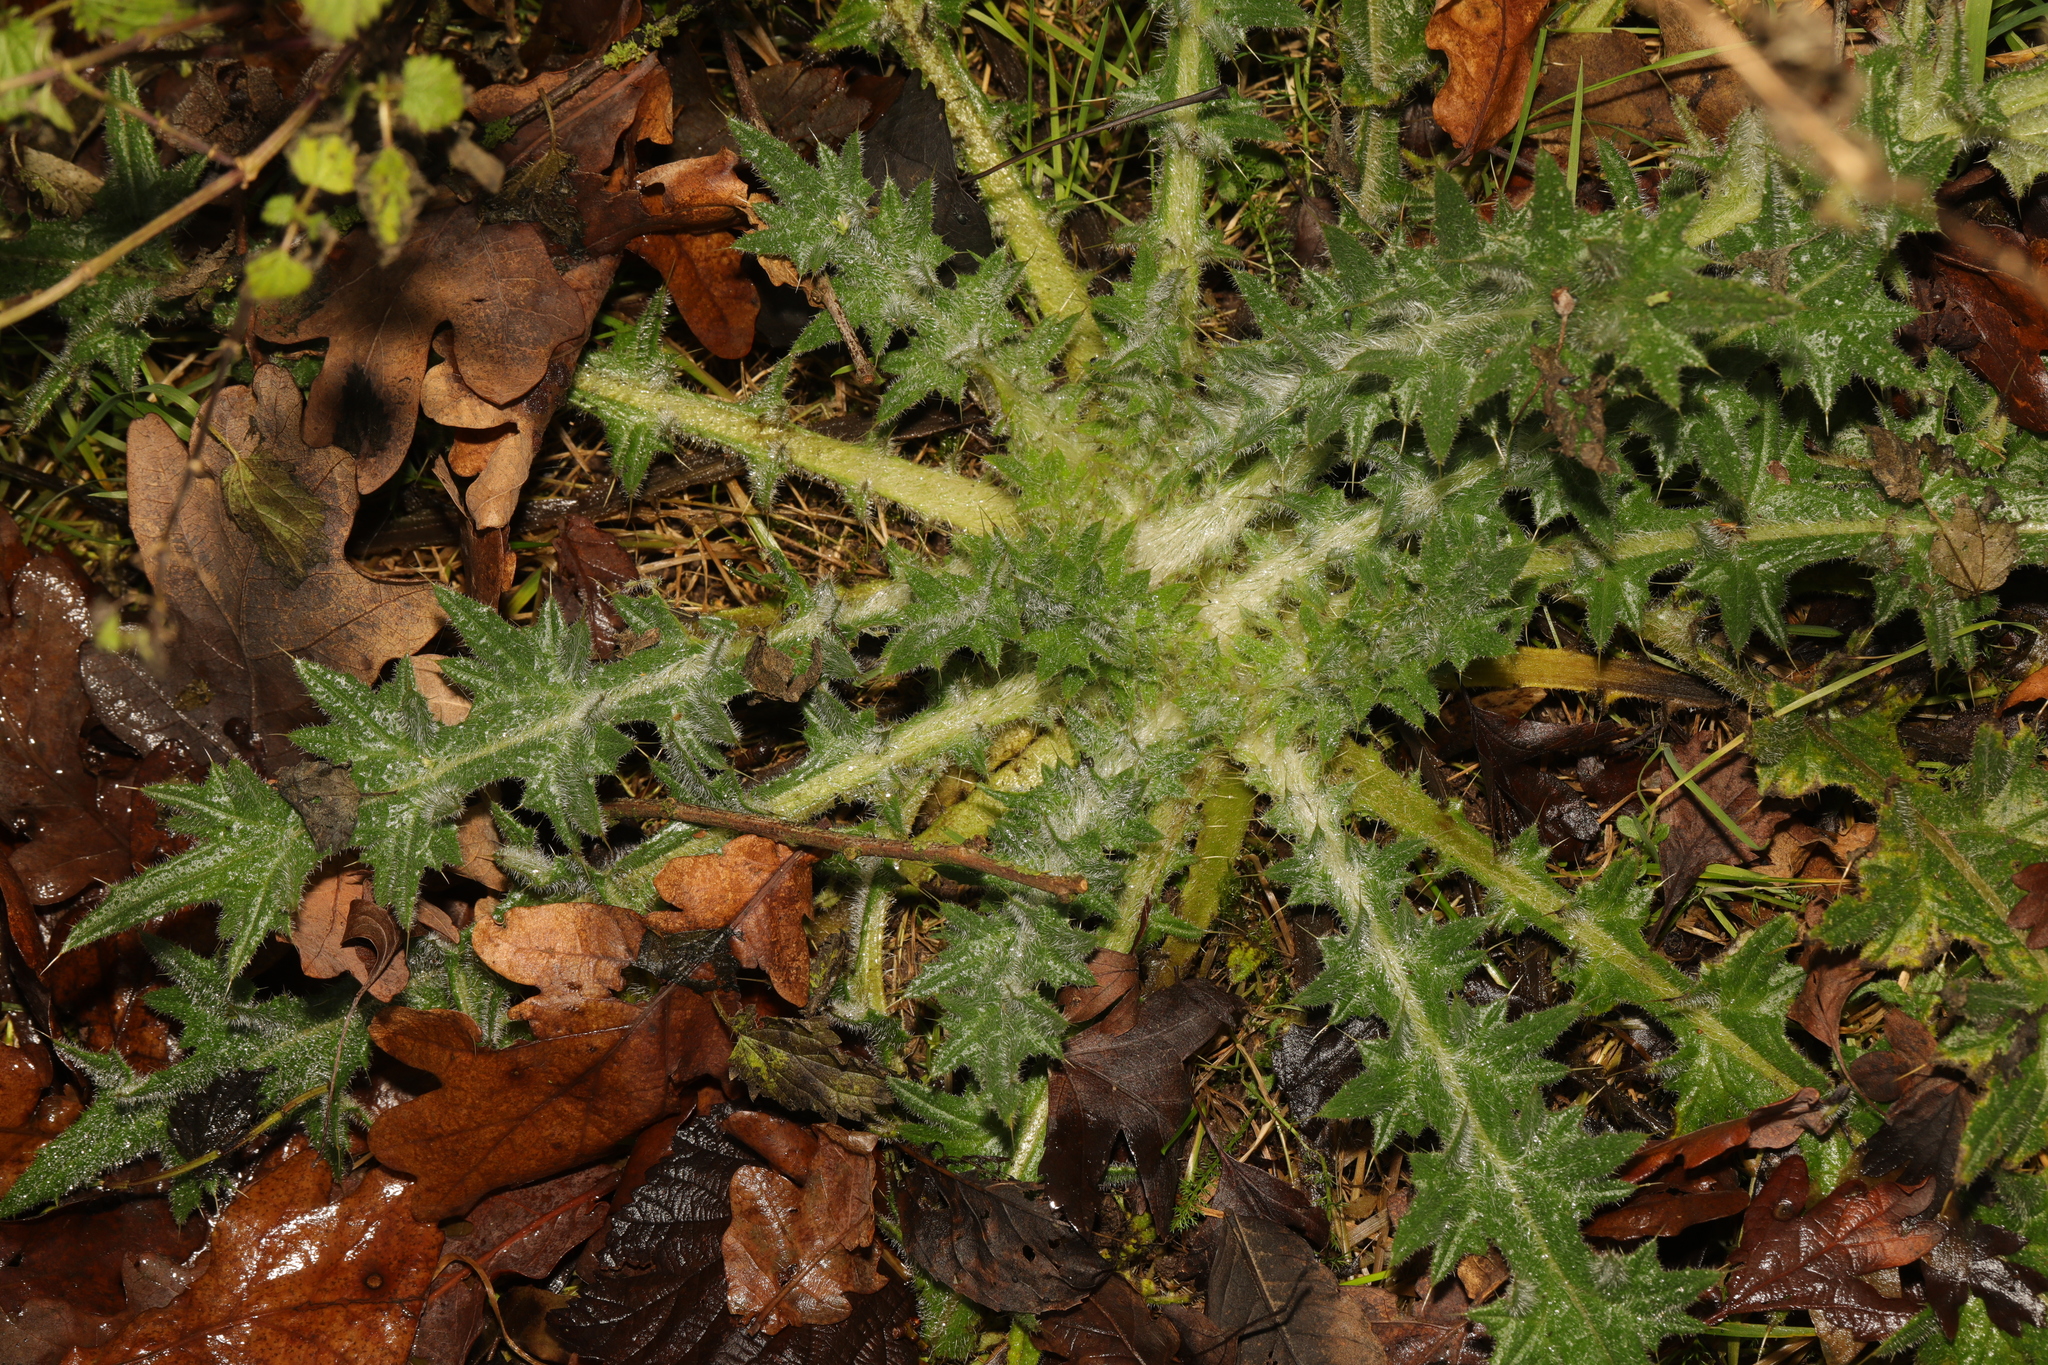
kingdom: Plantae
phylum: Tracheophyta
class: Magnoliopsida
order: Asterales
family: Asteraceae
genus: Cirsium
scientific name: Cirsium vulgare
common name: Bull thistle
